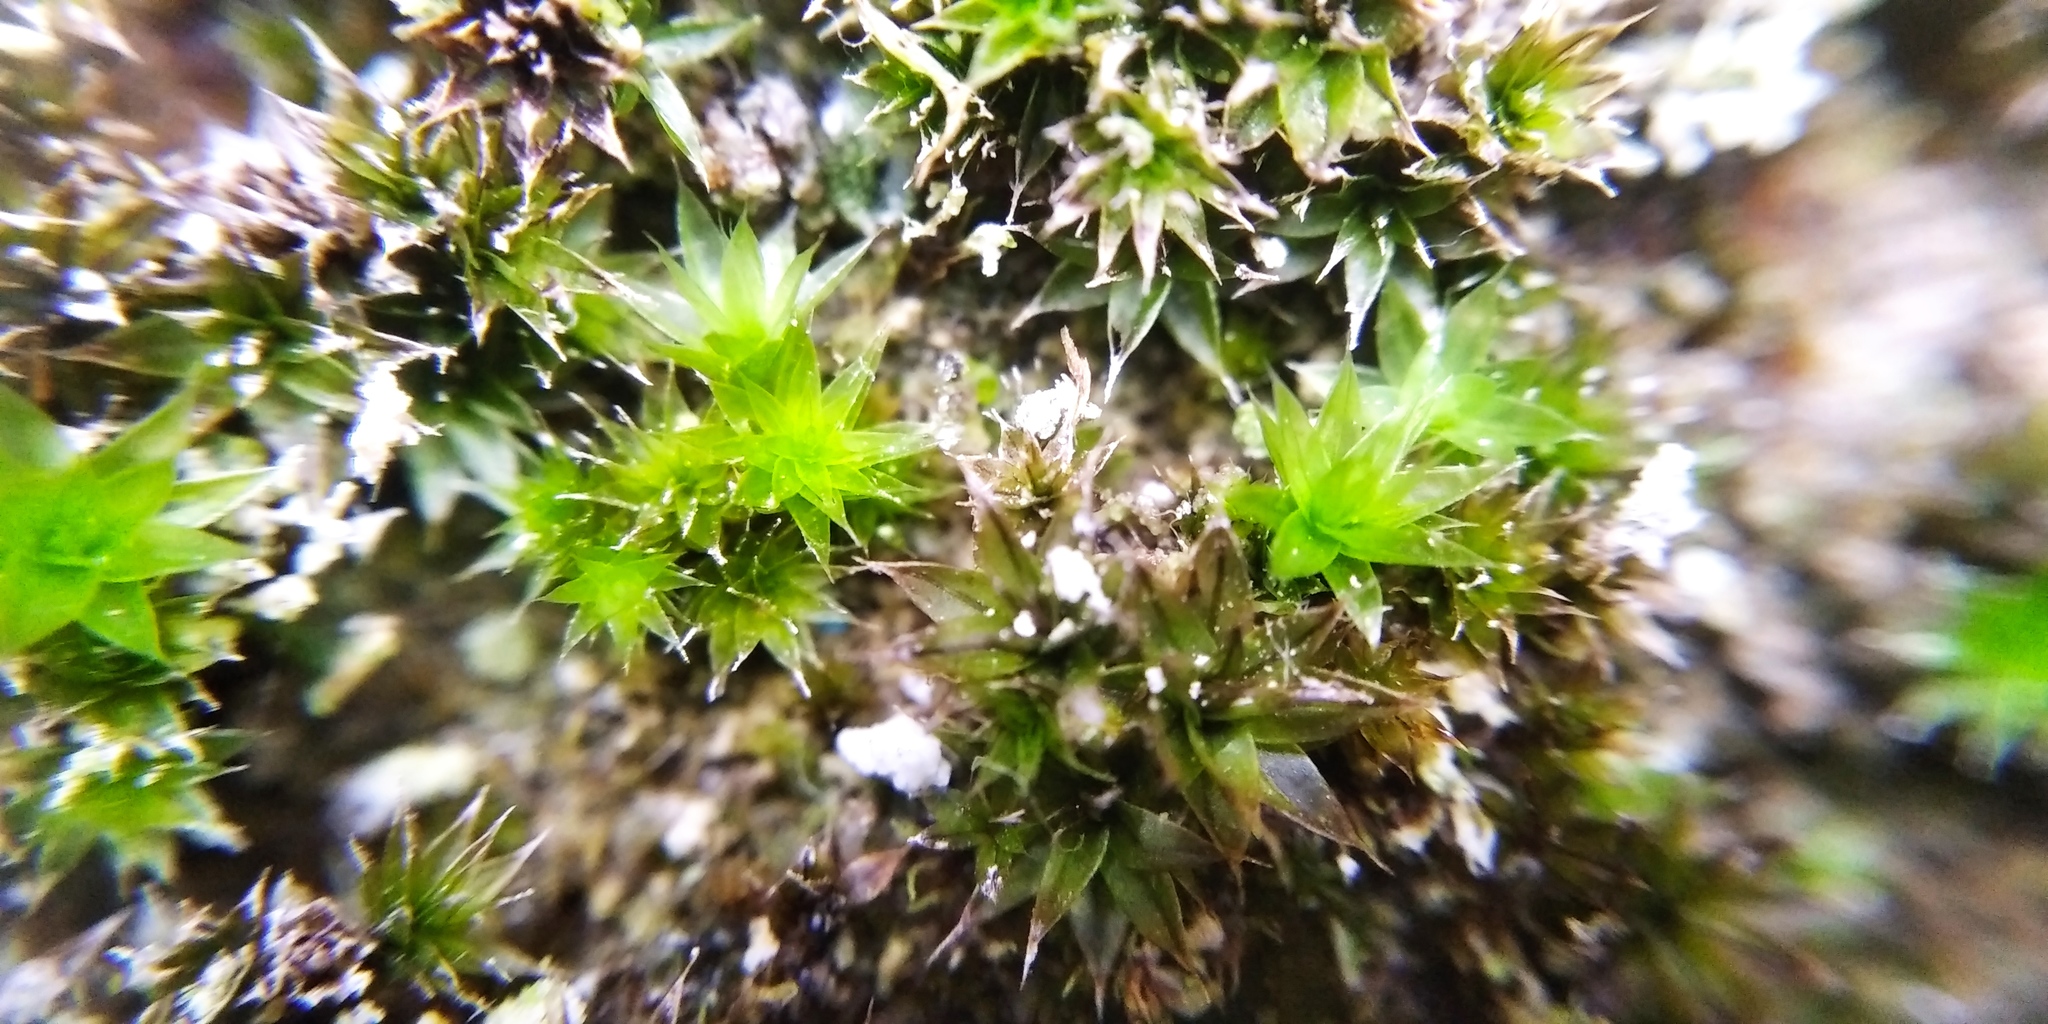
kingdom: Plantae
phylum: Bryophyta
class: Bryopsida
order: Pottiales
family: Pottiaceae
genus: Syntrichia
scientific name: Syntrichia ruralis
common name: Sidewalk screw moss
